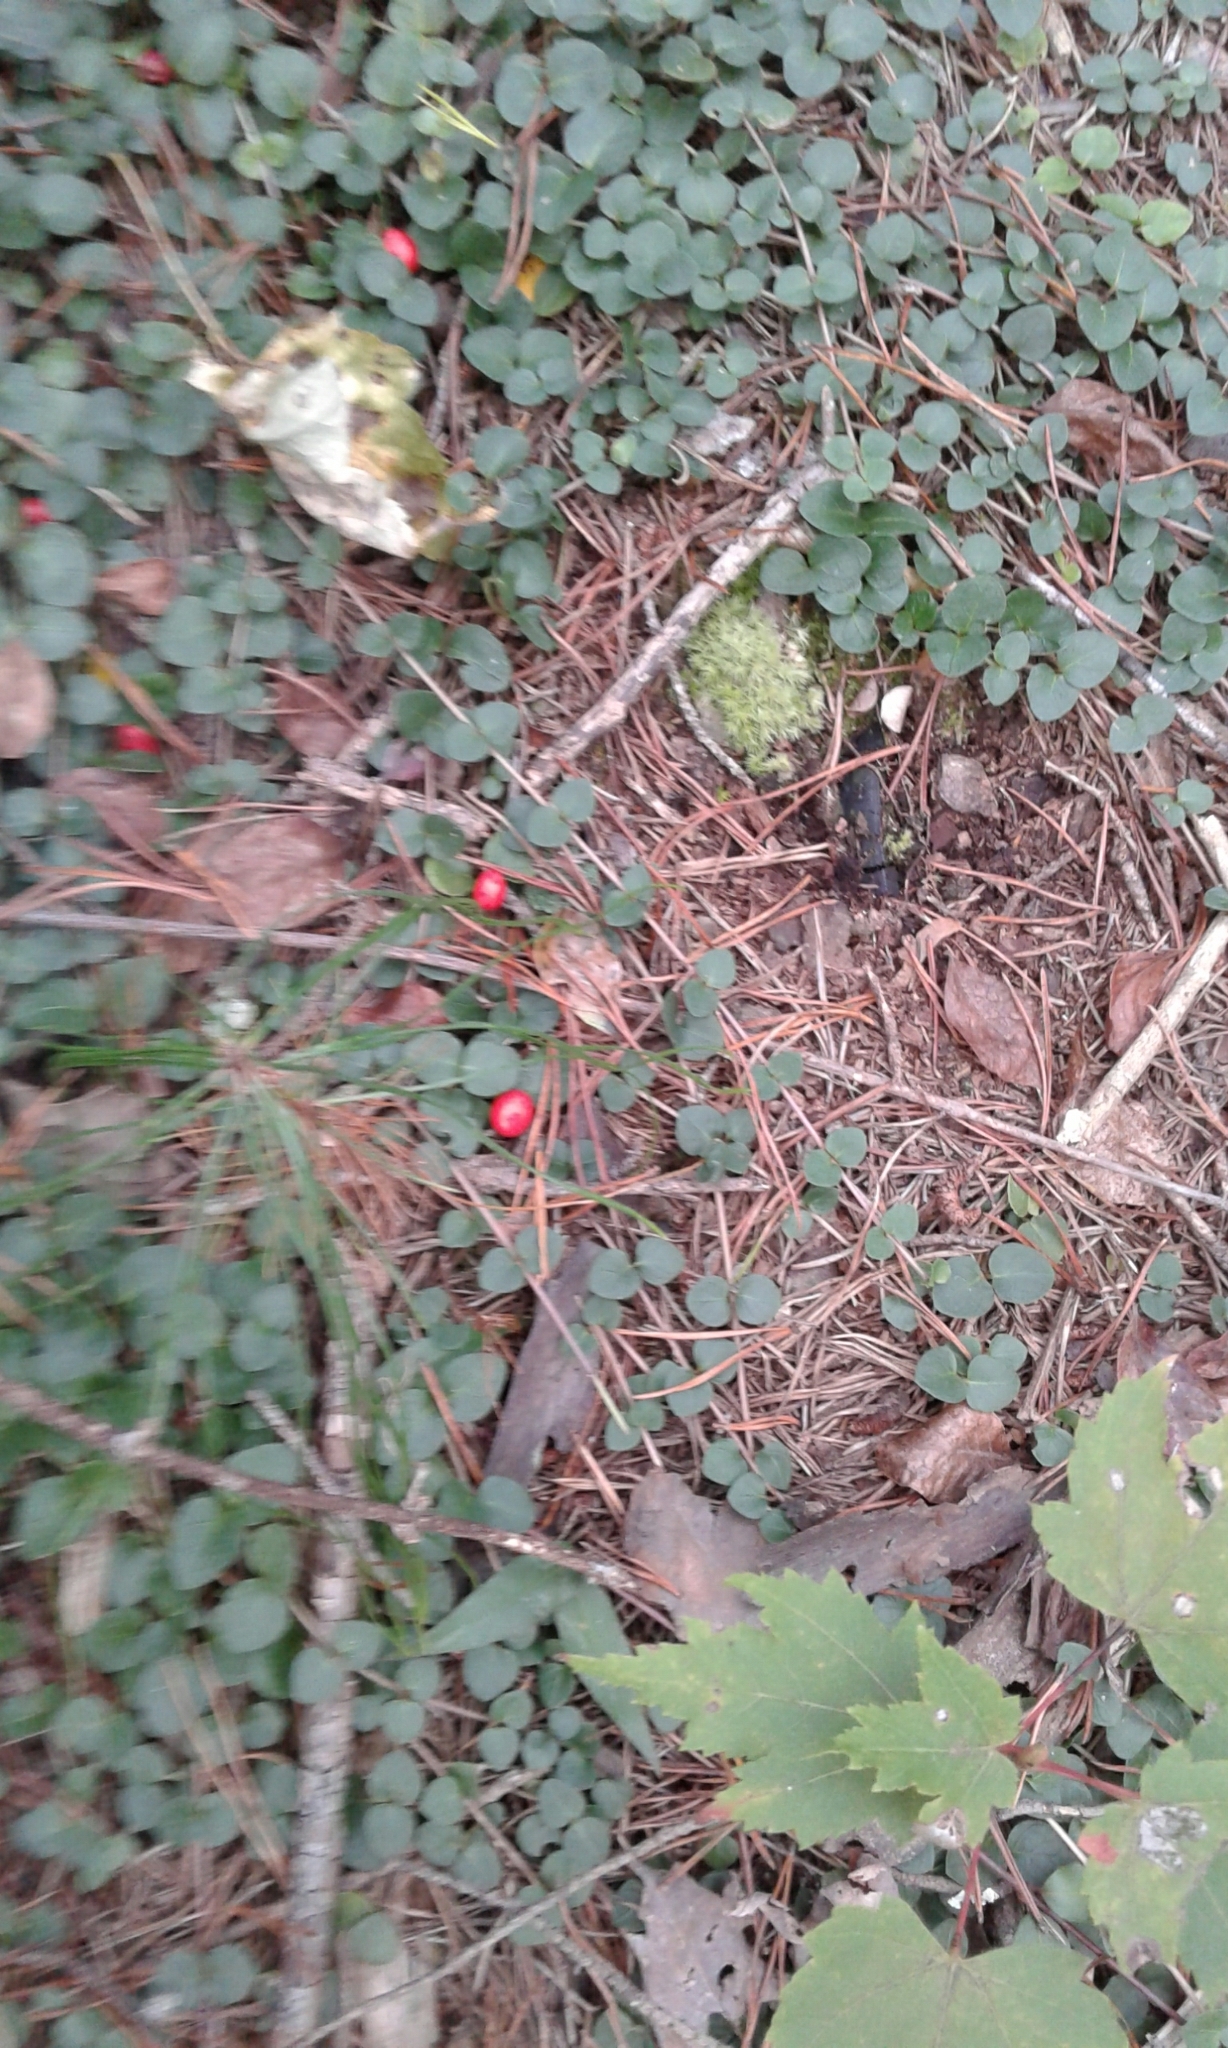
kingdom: Plantae
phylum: Tracheophyta
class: Magnoliopsida
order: Gentianales
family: Rubiaceae
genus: Mitchella
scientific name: Mitchella repens
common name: Partridge-berry
